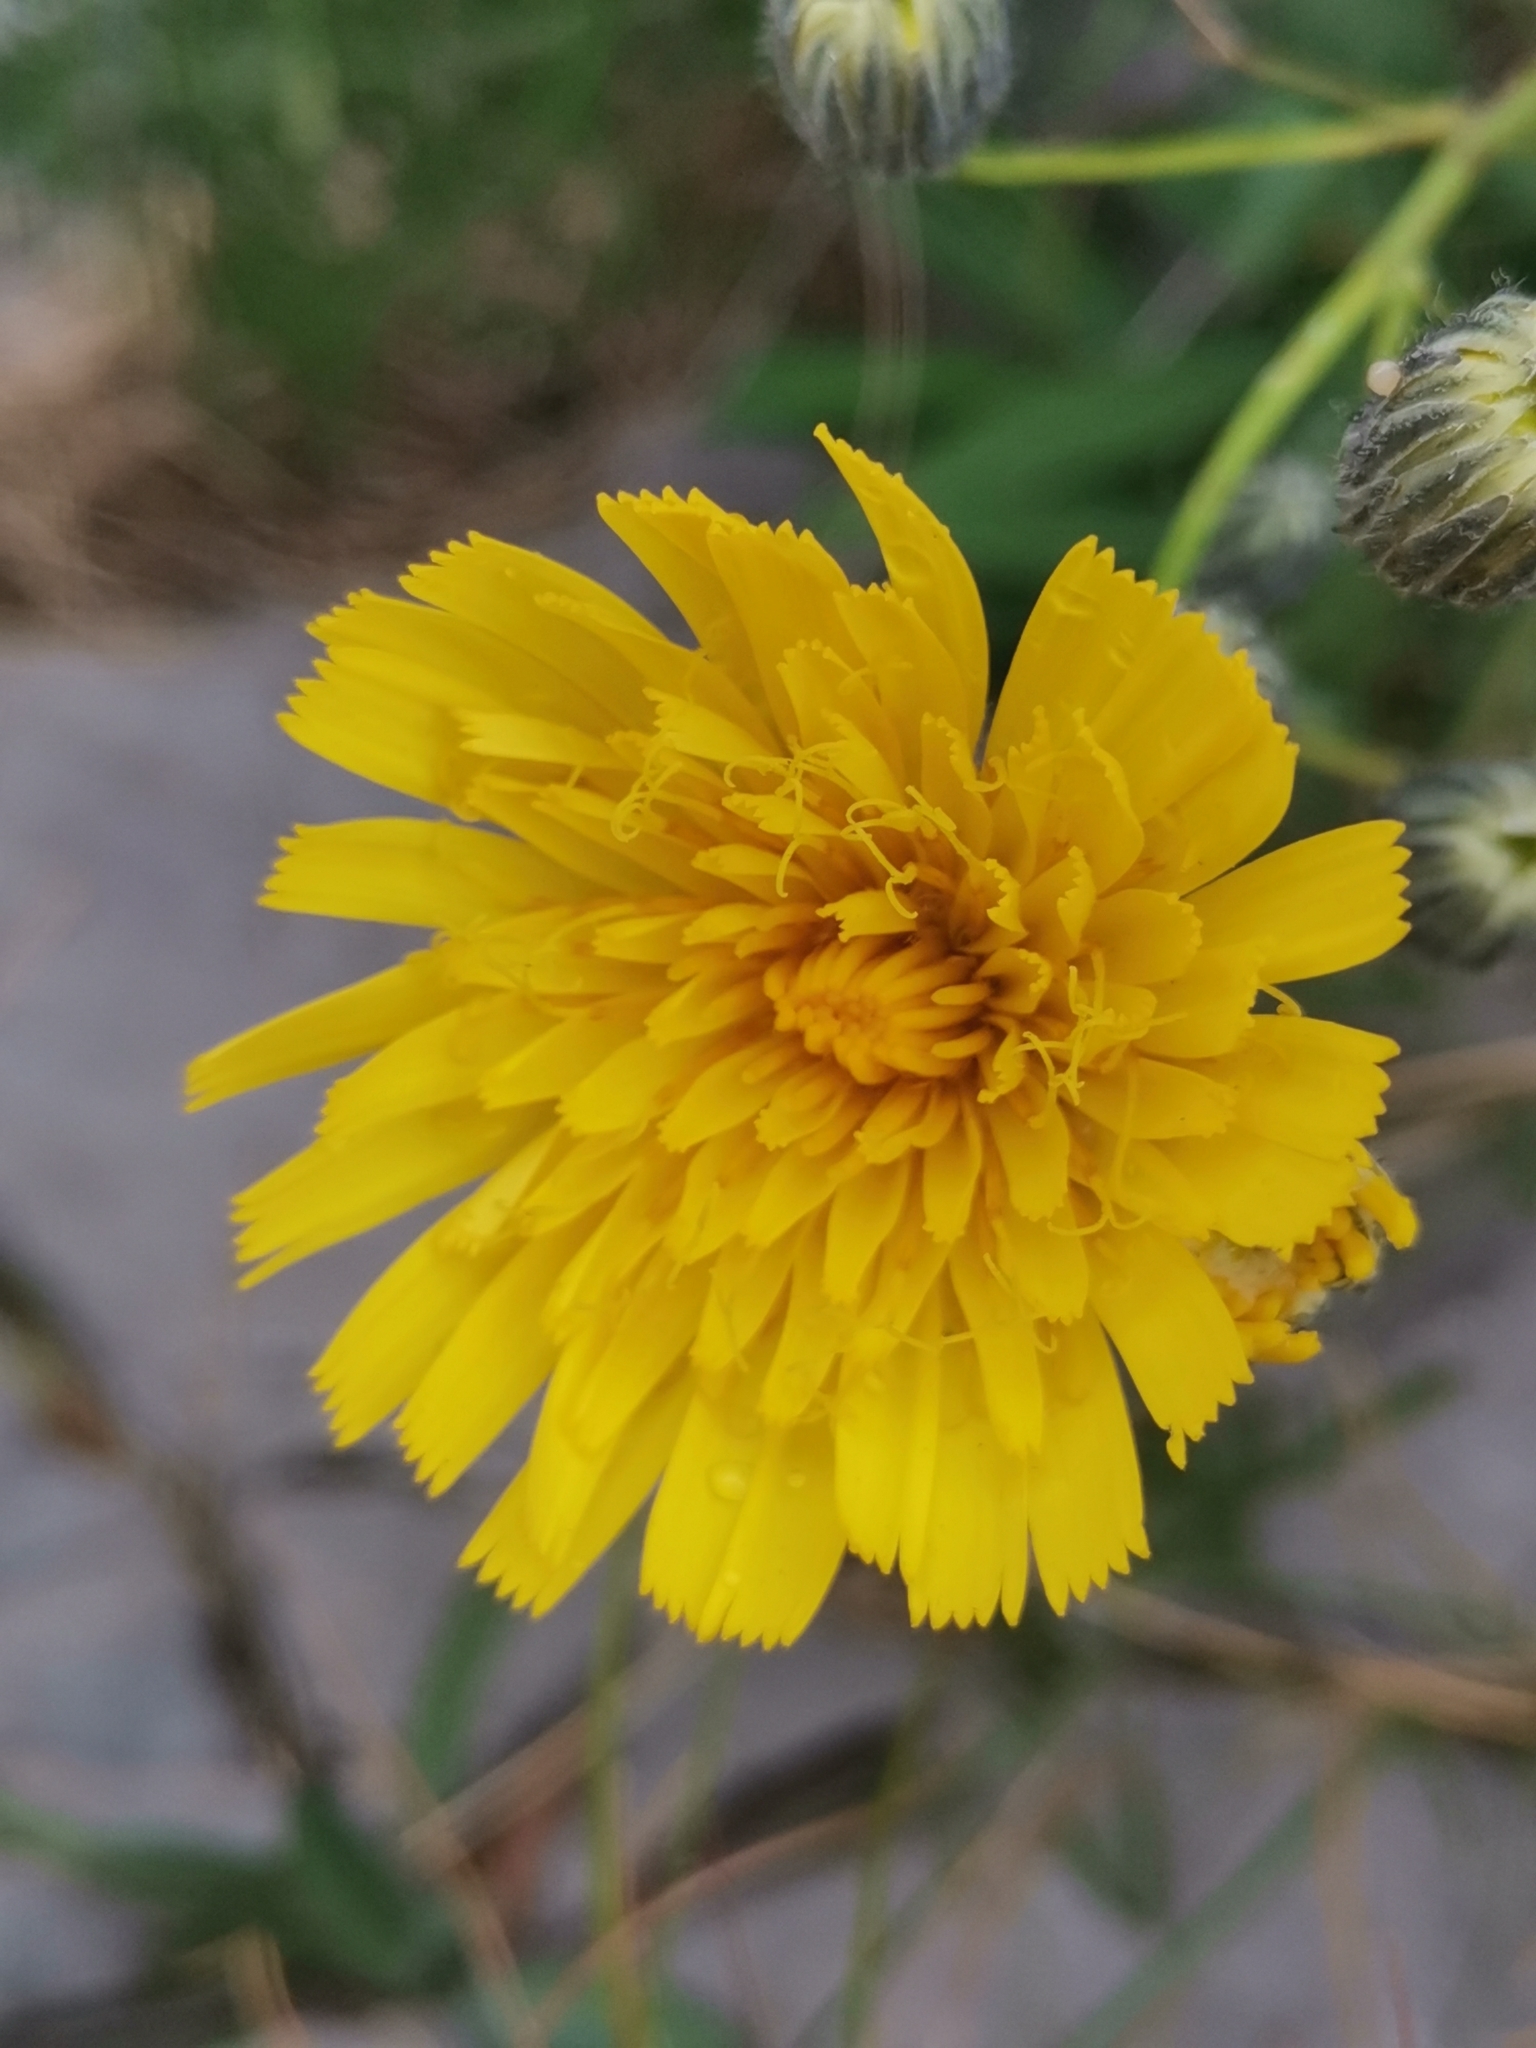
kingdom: Plantae
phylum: Tracheophyta
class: Magnoliopsida
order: Asterales
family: Asteraceae
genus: Hieracium
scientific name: Hieracium glaucum
